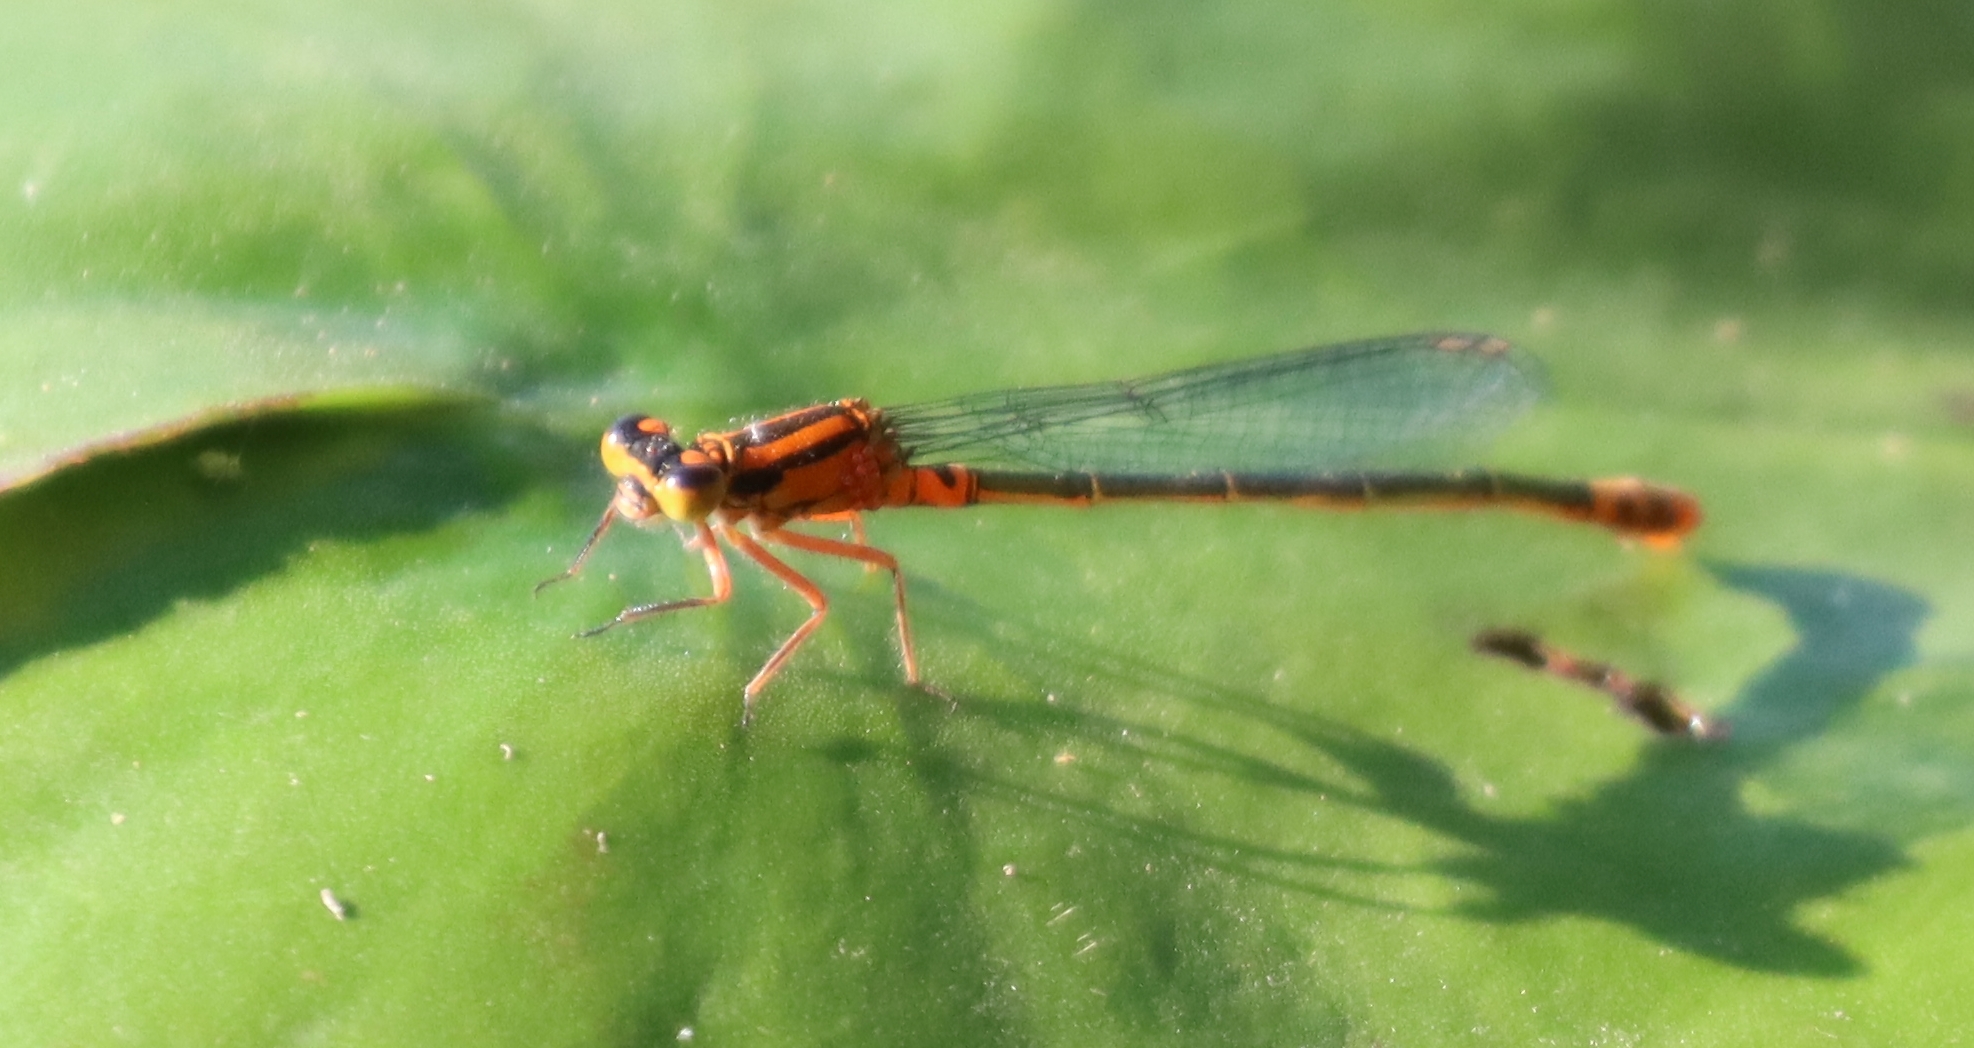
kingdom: Animalia
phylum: Arthropoda
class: Insecta
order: Odonata
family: Coenagrionidae
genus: Ischnura
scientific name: Ischnura kellicotti
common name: Lilypad forktail
